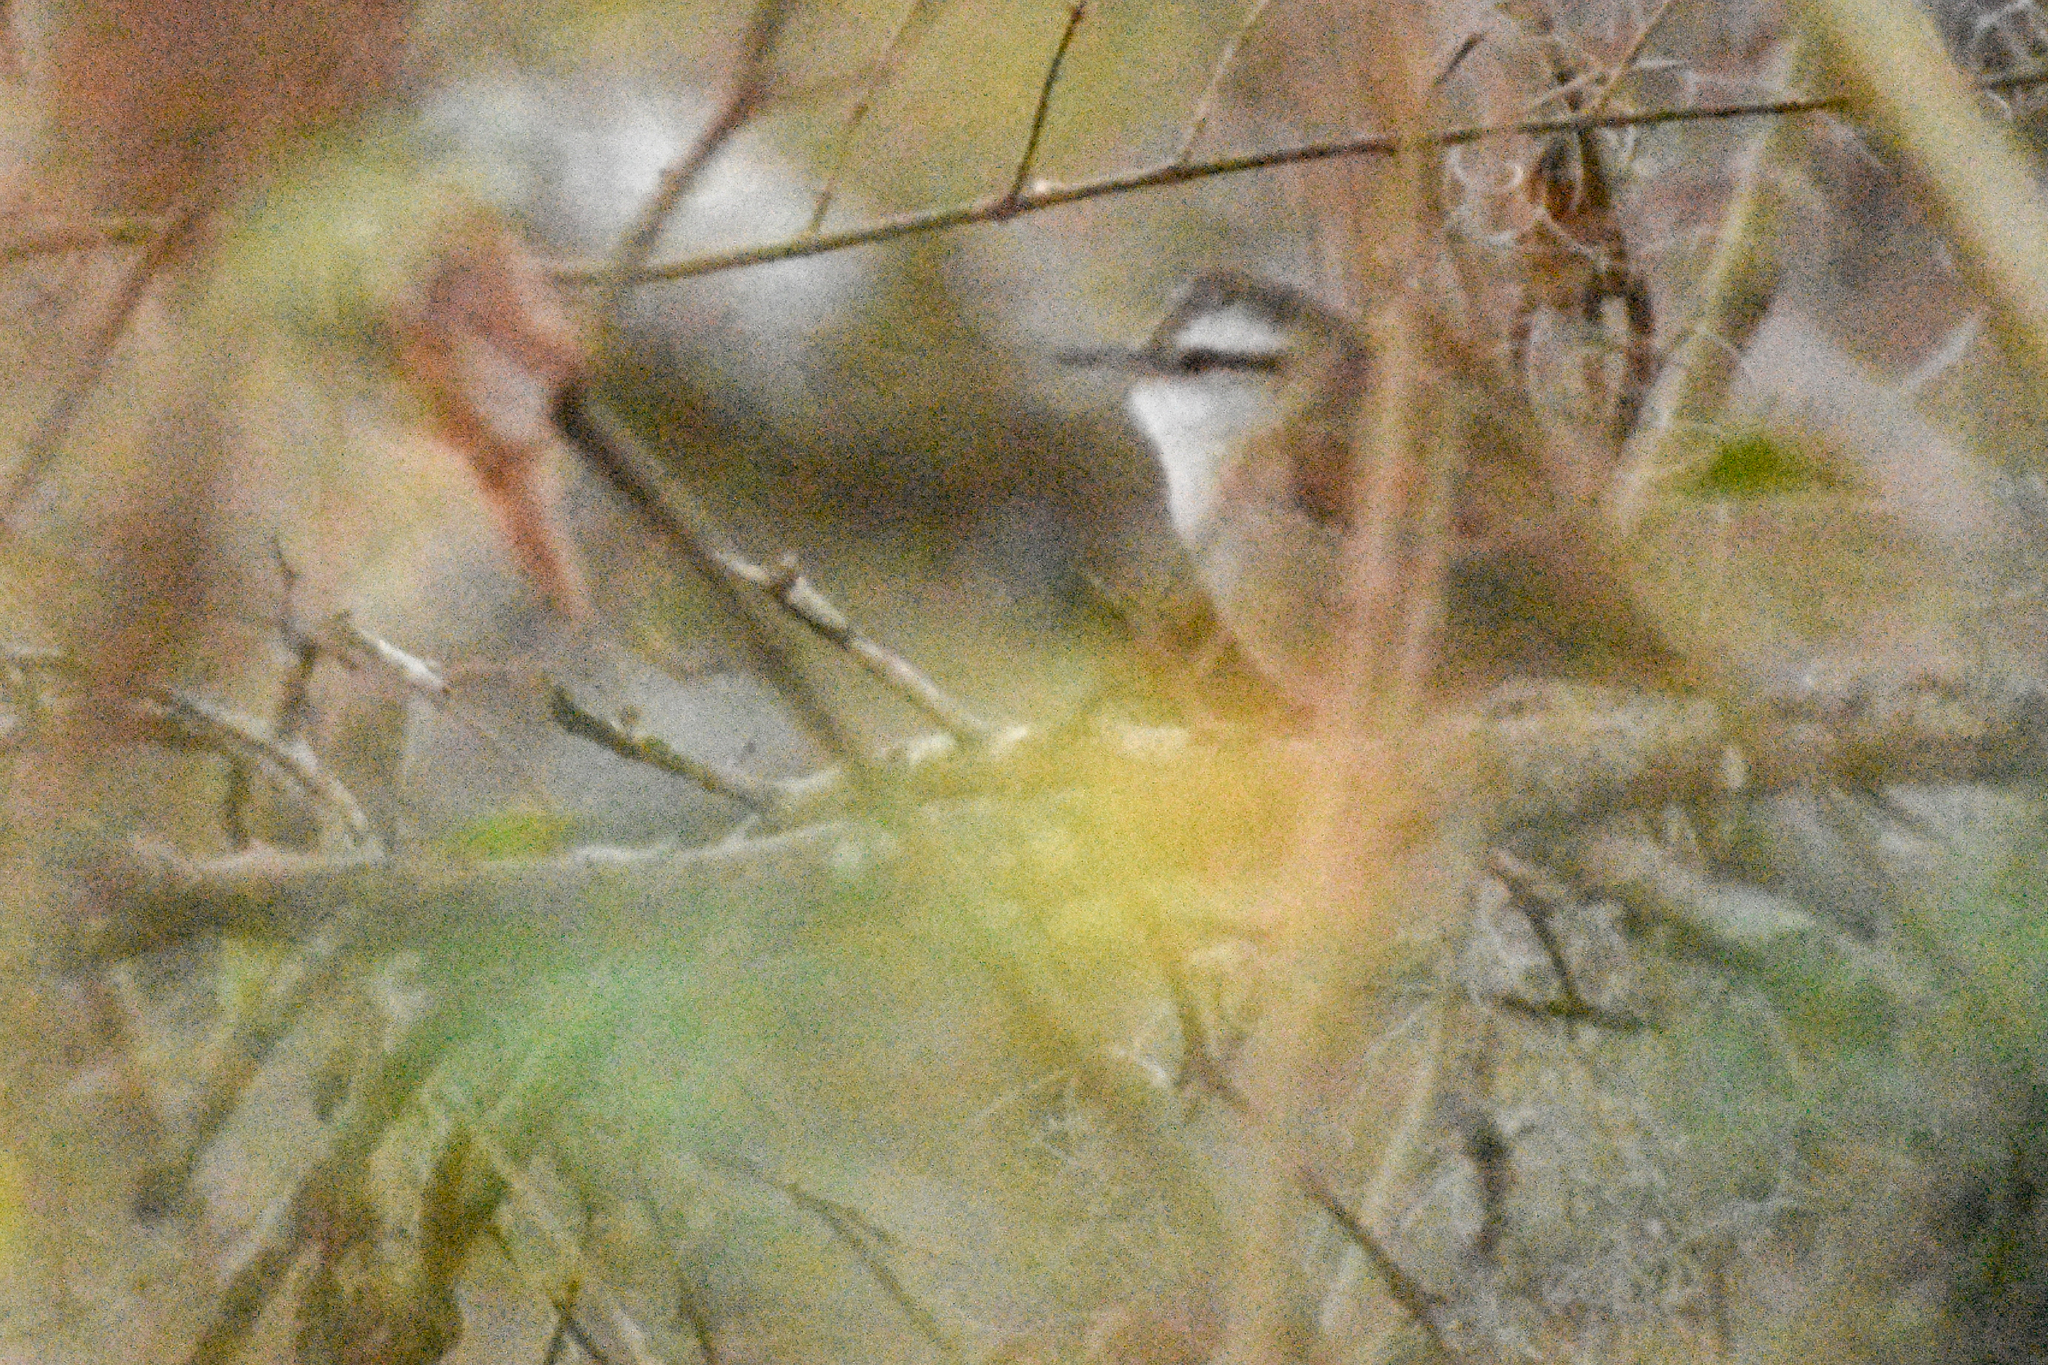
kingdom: Animalia
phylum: Chordata
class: Aves
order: Passeriformes
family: Furnariidae
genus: Cranioleuca
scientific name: Cranioleuca pyrrhophia
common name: Stripe-crowned spinetail
